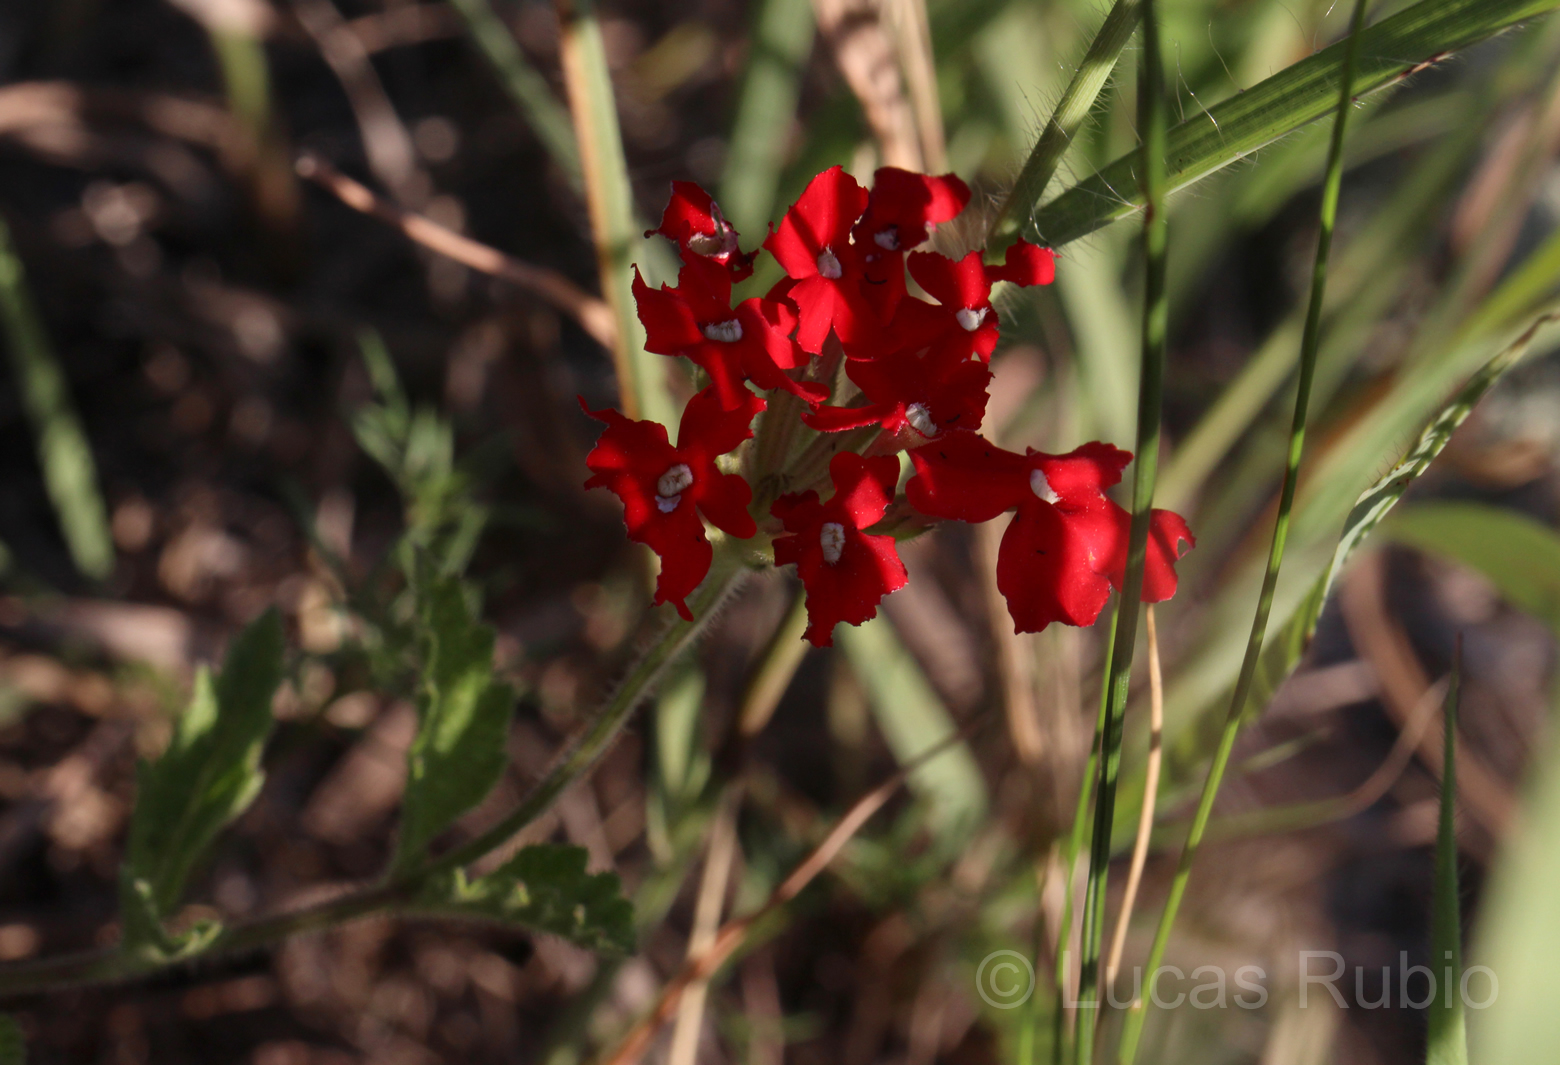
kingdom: Plantae
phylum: Tracheophyta
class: Magnoliopsida
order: Lamiales
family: Verbenaceae
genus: Verbena
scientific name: Verbena peruviana
